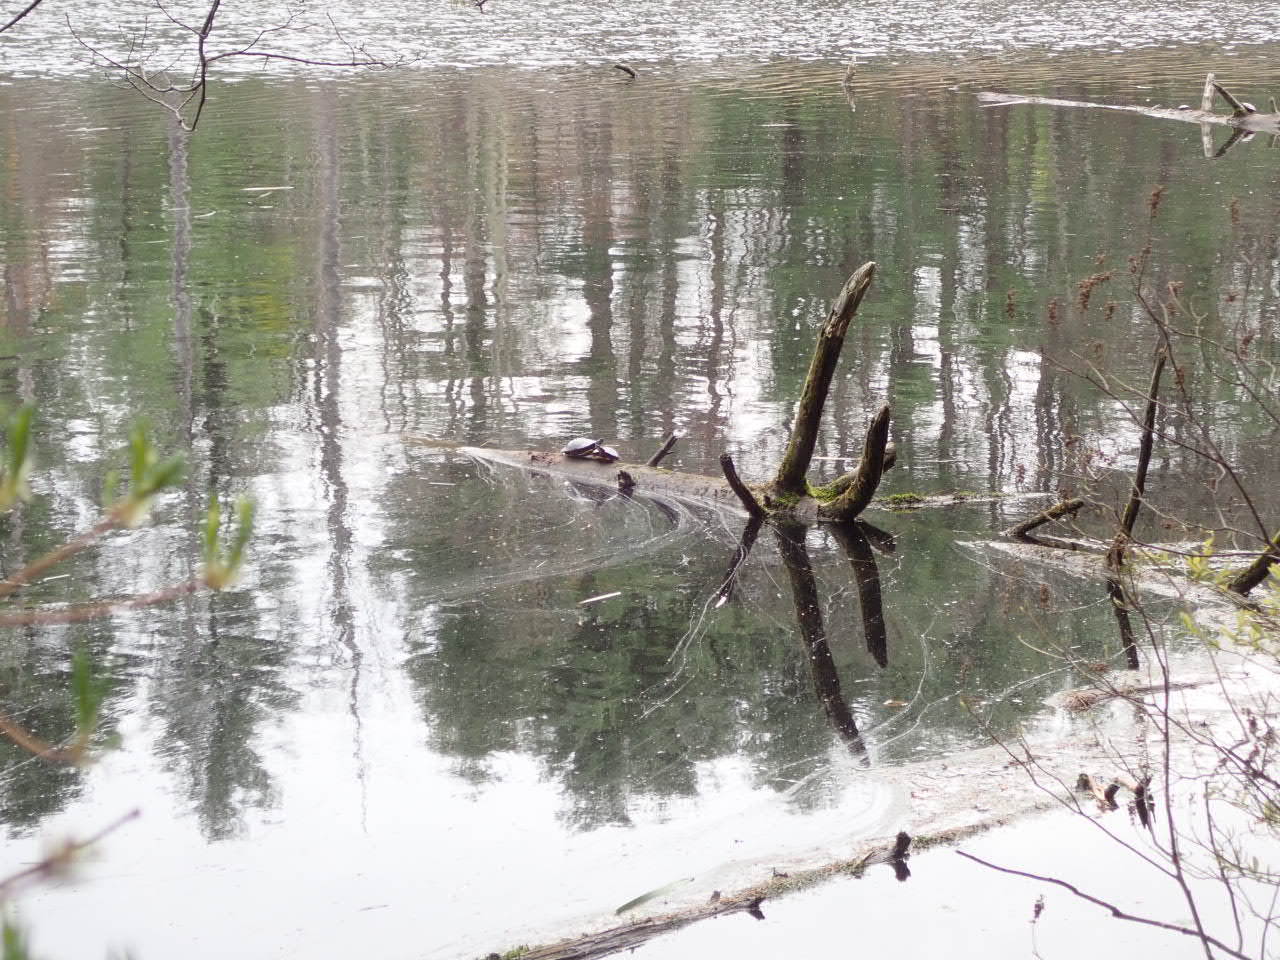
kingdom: Animalia
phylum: Chordata
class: Testudines
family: Emydidae
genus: Chrysemys
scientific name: Chrysemys picta
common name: Painted turtle
